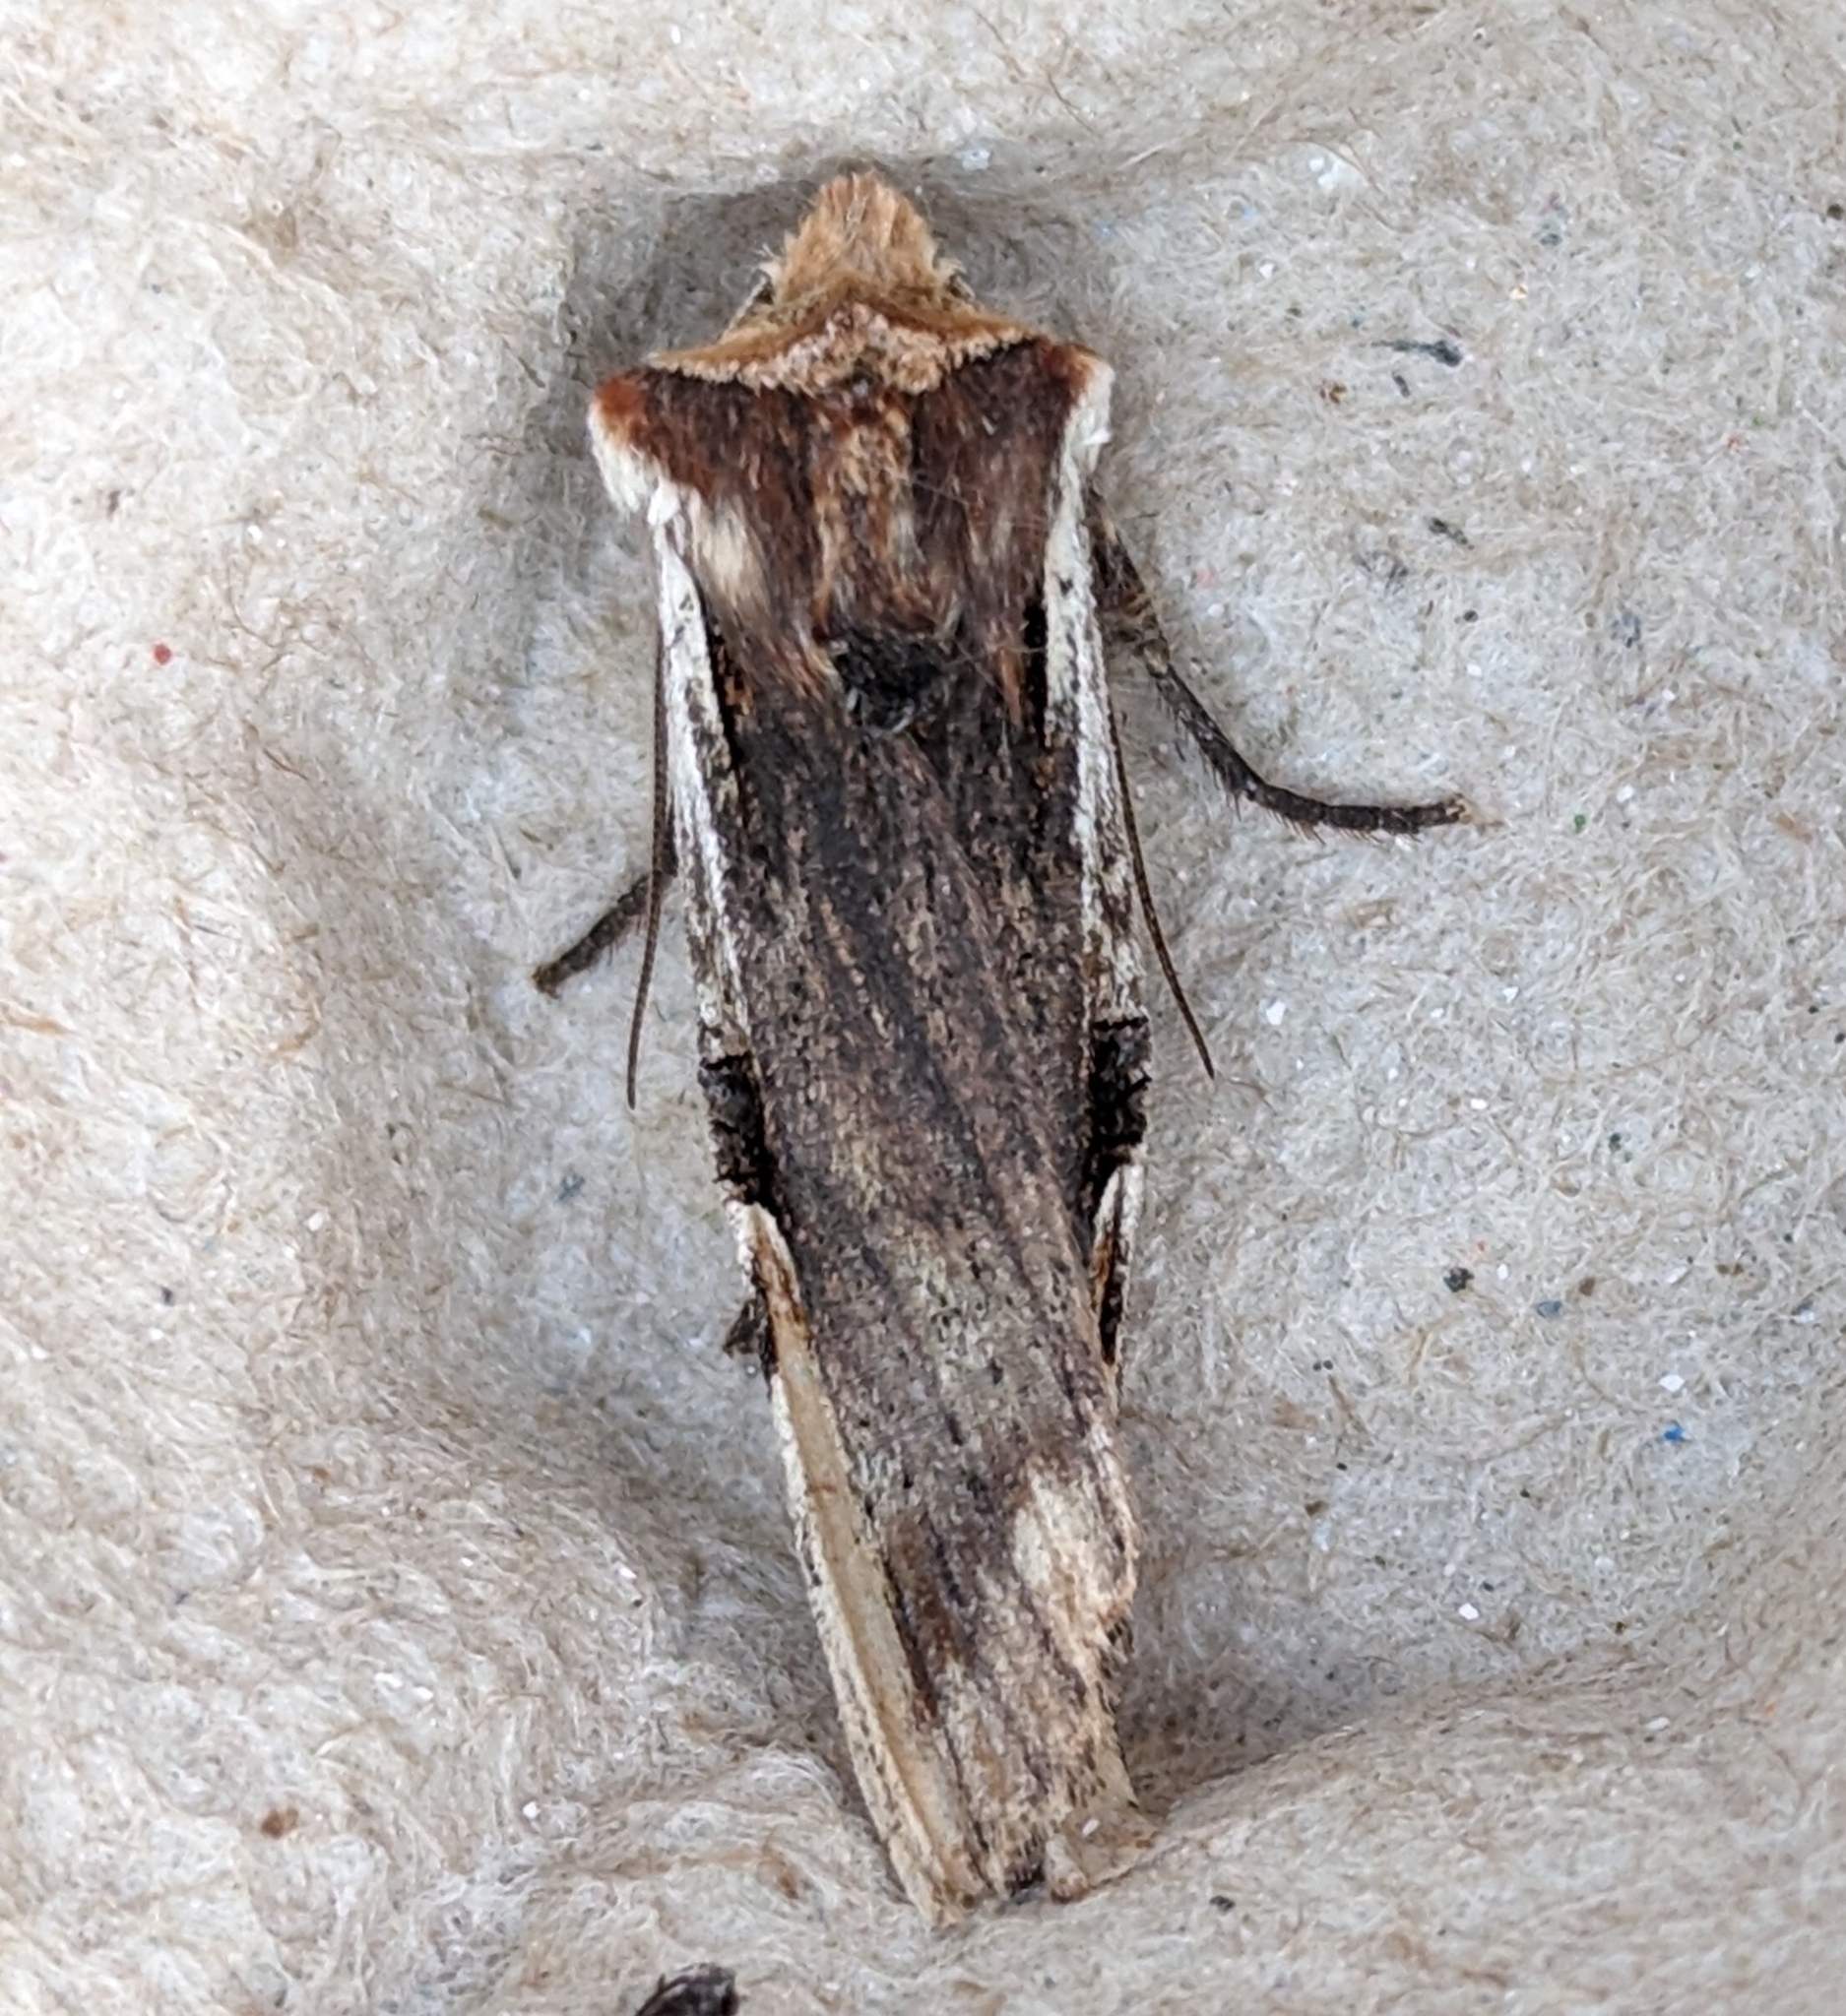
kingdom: Animalia
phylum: Arthropoda
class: Insecta
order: Lepidoptera
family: Noctuidae
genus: Xylena
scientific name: Xylena curvimacula
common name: Dot-and-dash swordgrass moth
